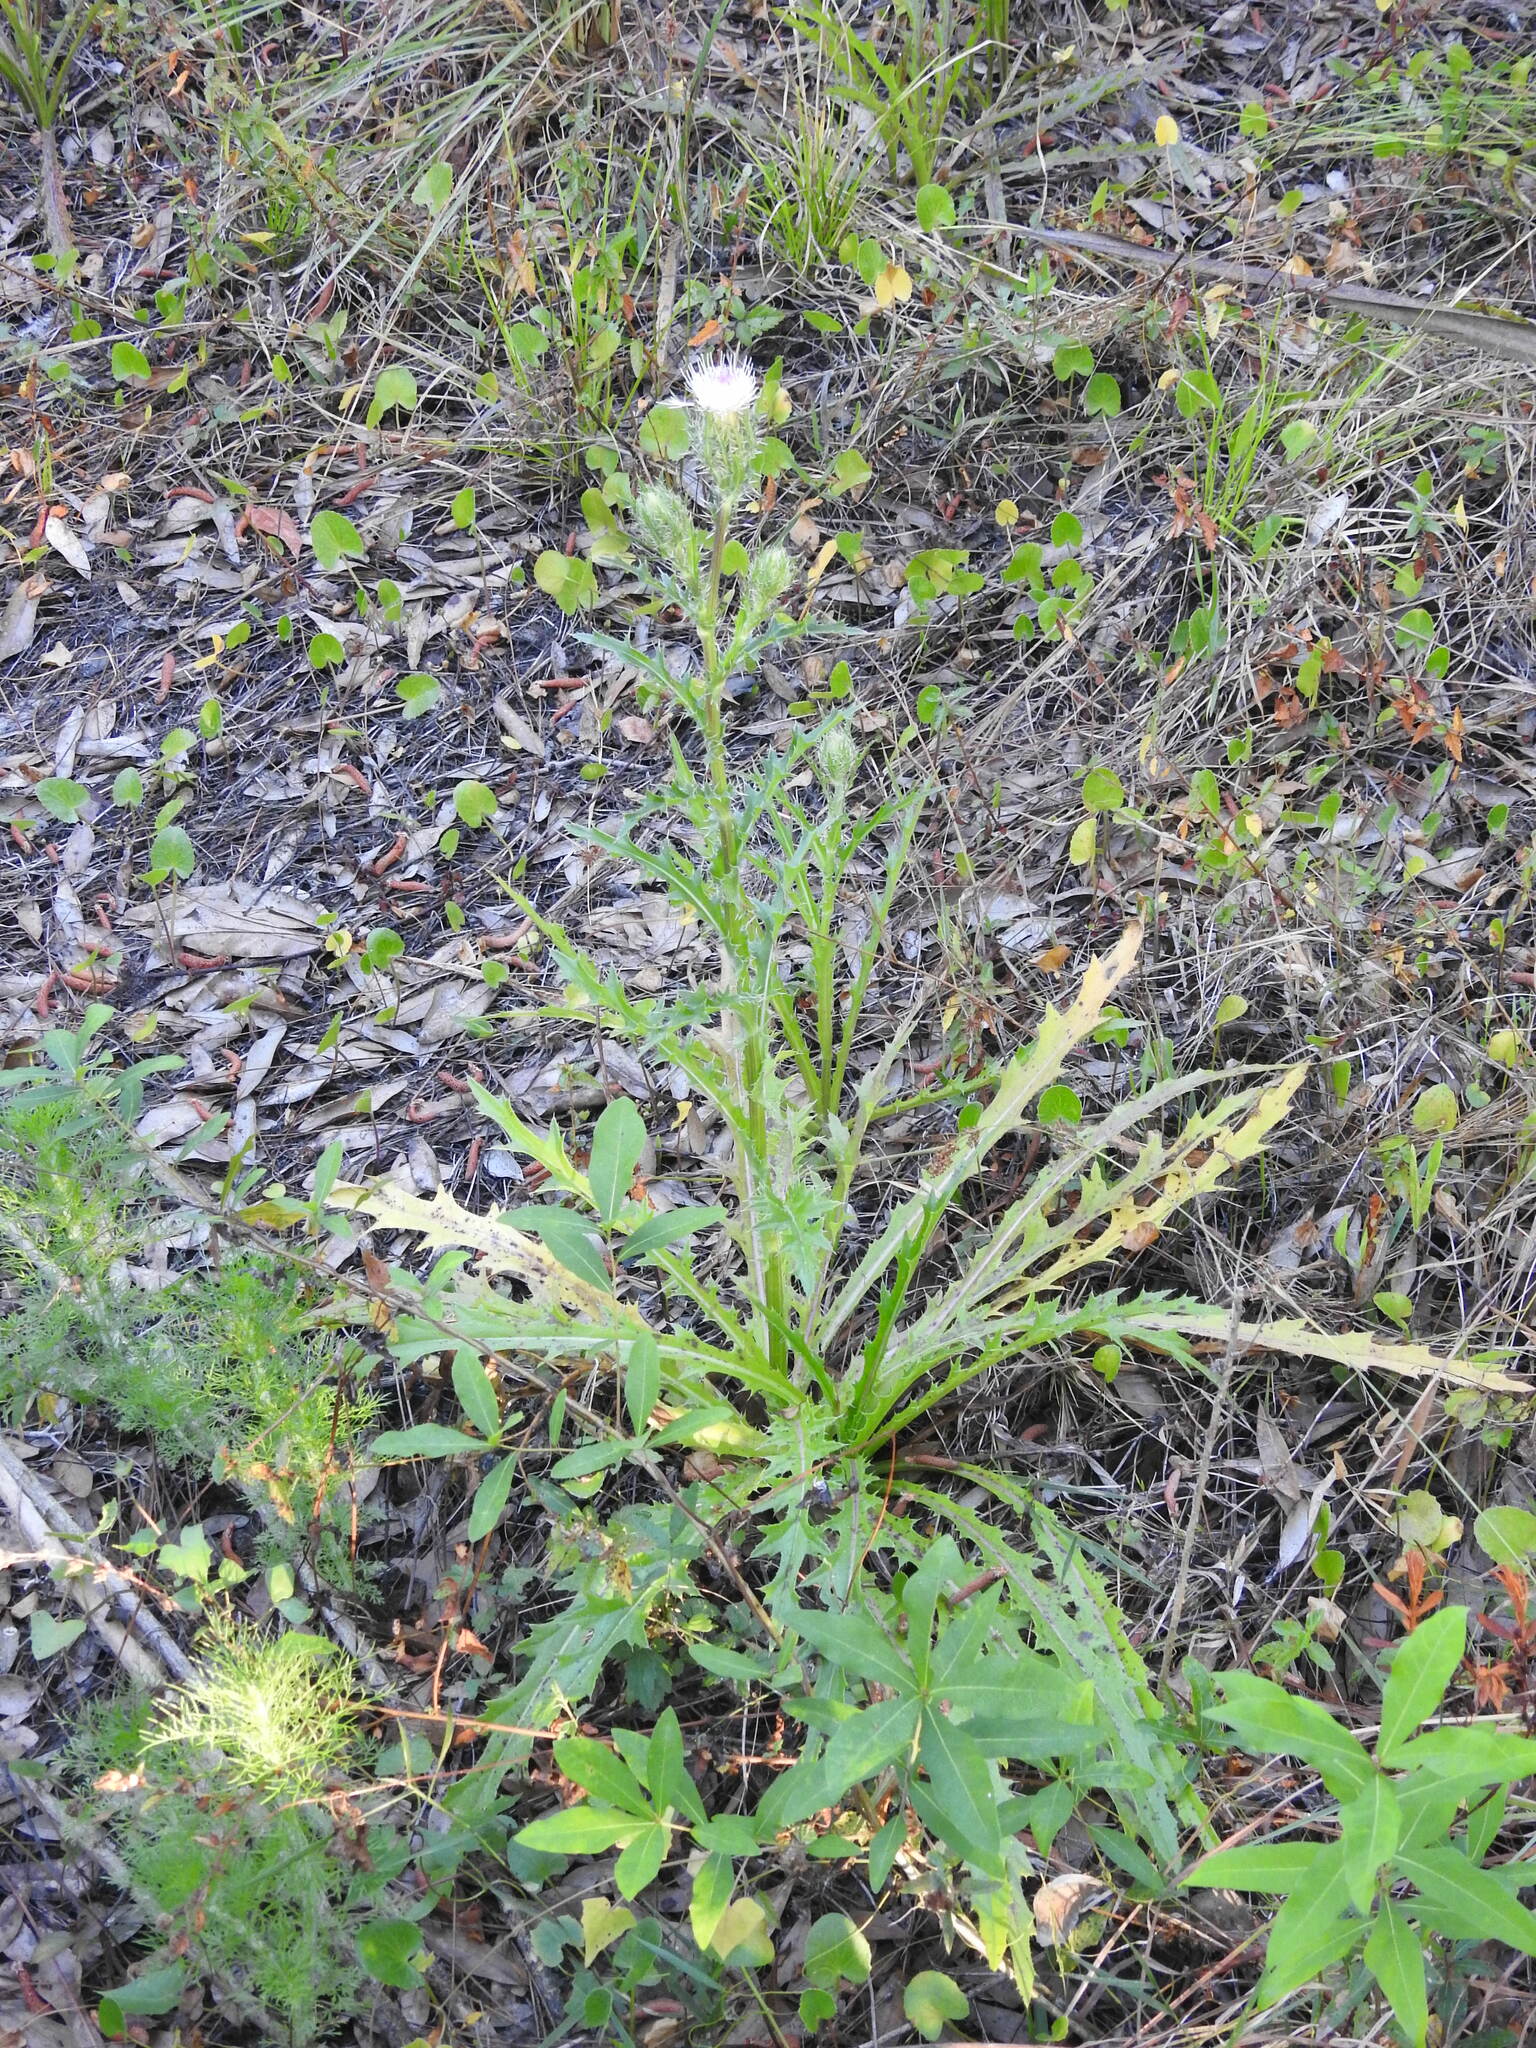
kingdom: Plantae
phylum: Tracheophyta
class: Magnoliopsida
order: Asterales
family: Asteraceae
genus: Cirsium
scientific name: Cirsium horridulum
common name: Bristly thistle
